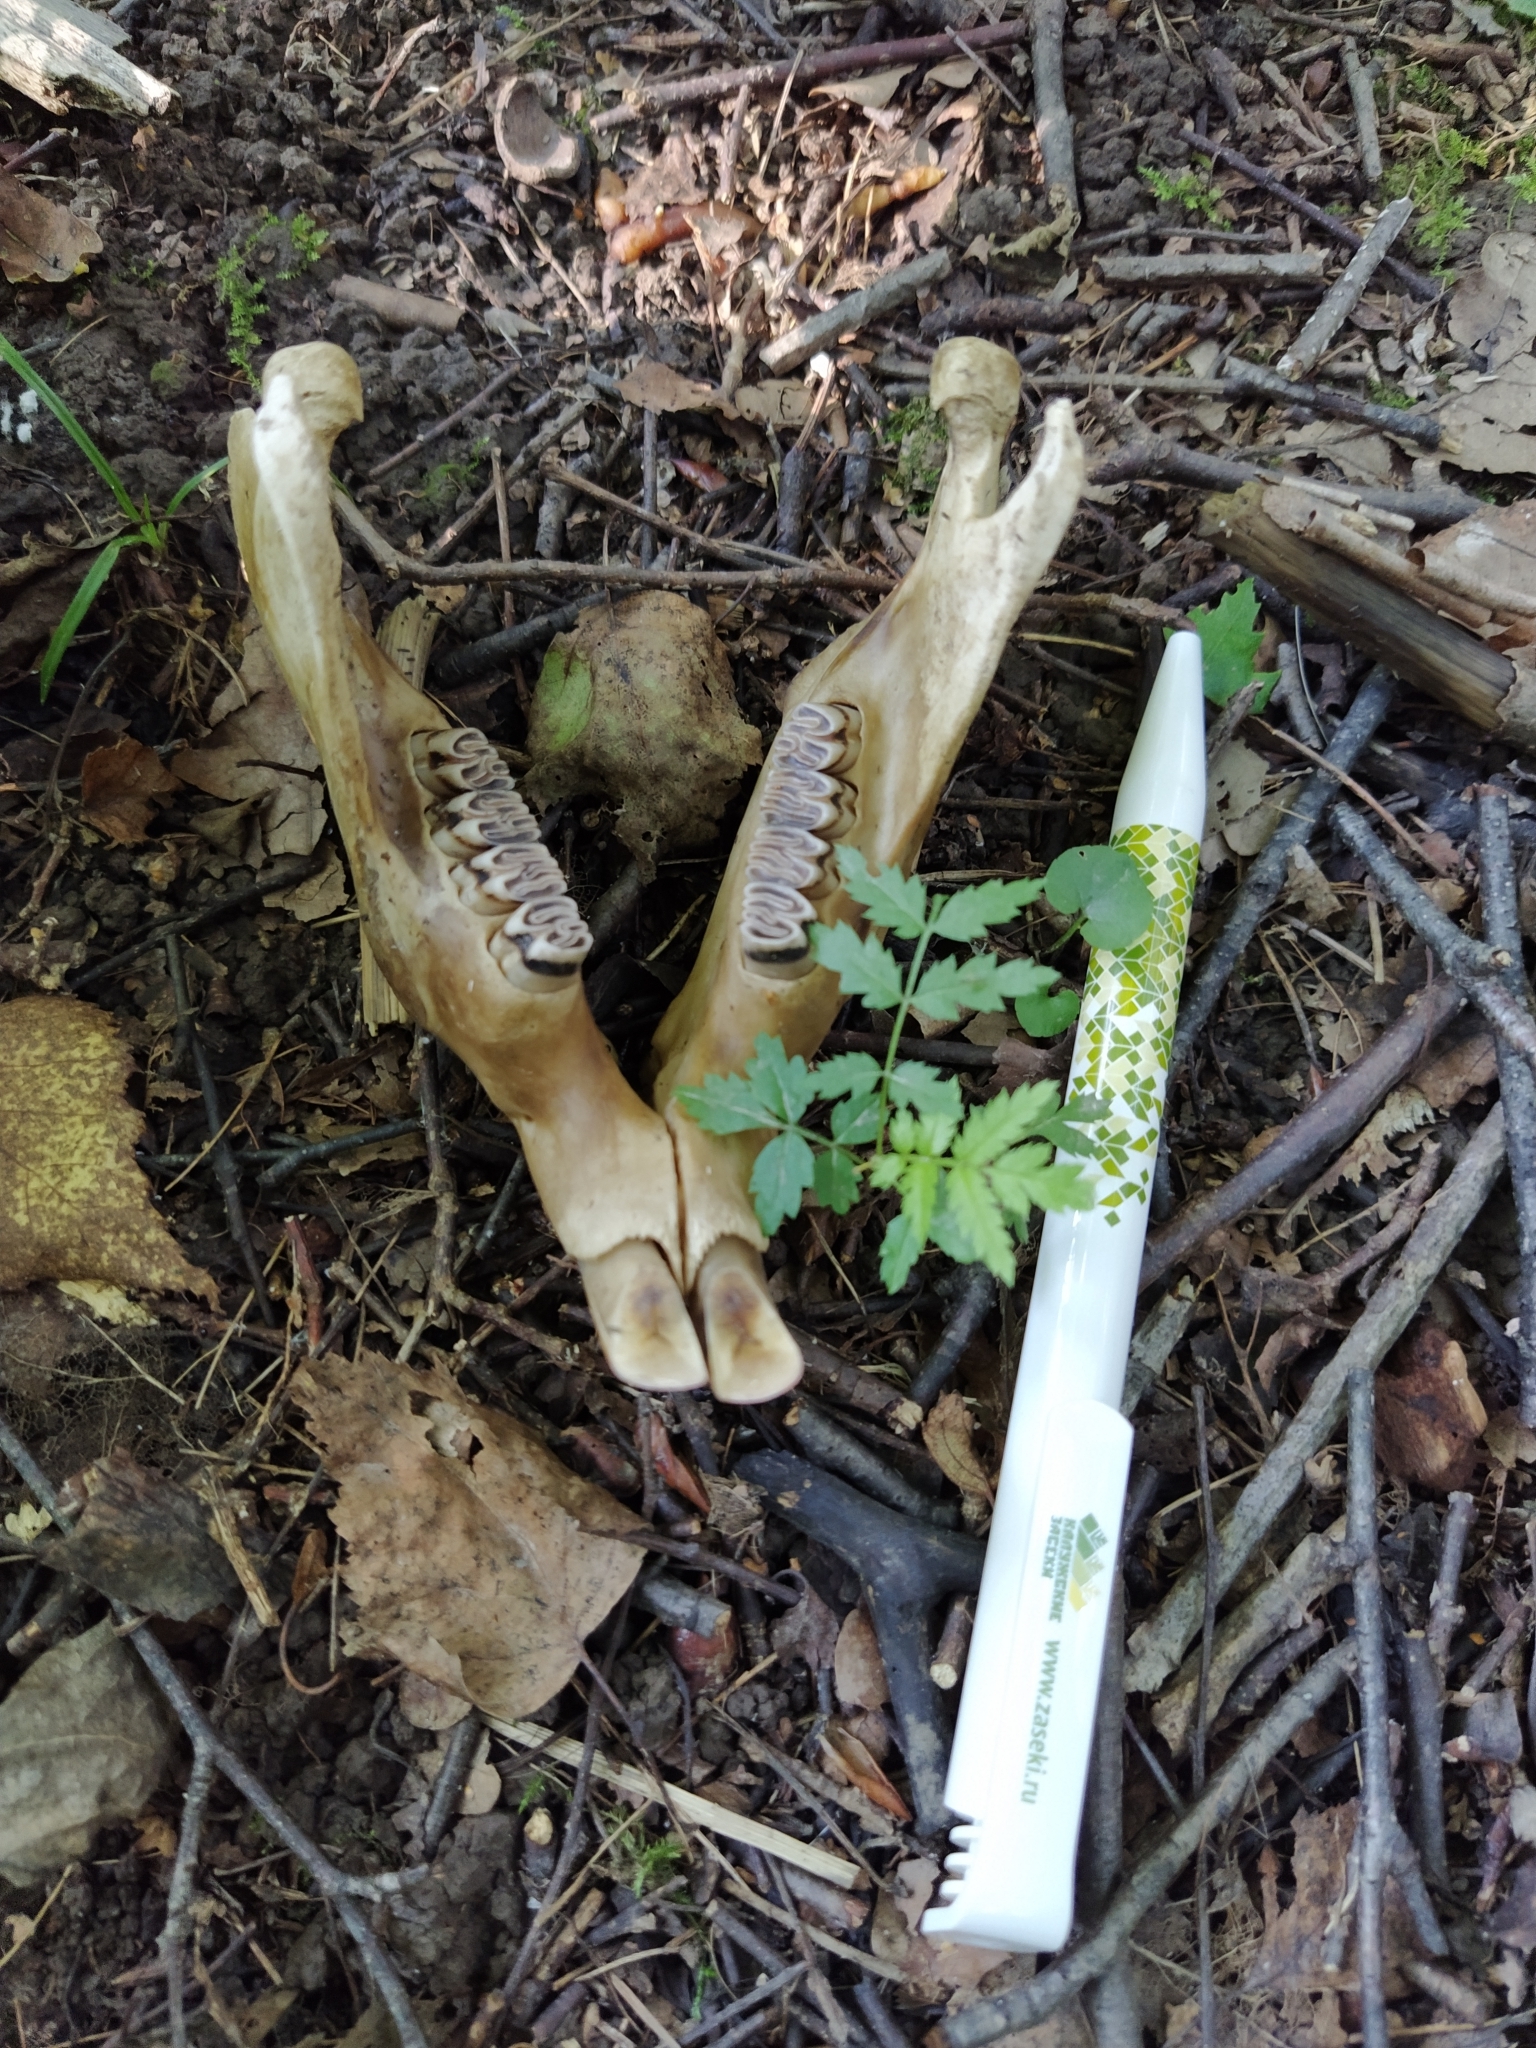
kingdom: Animalia
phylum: Chordata
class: Mammalia
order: Rodentia
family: Castoridae
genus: Castor
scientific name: Castor fiber
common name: Eurasian beaver
